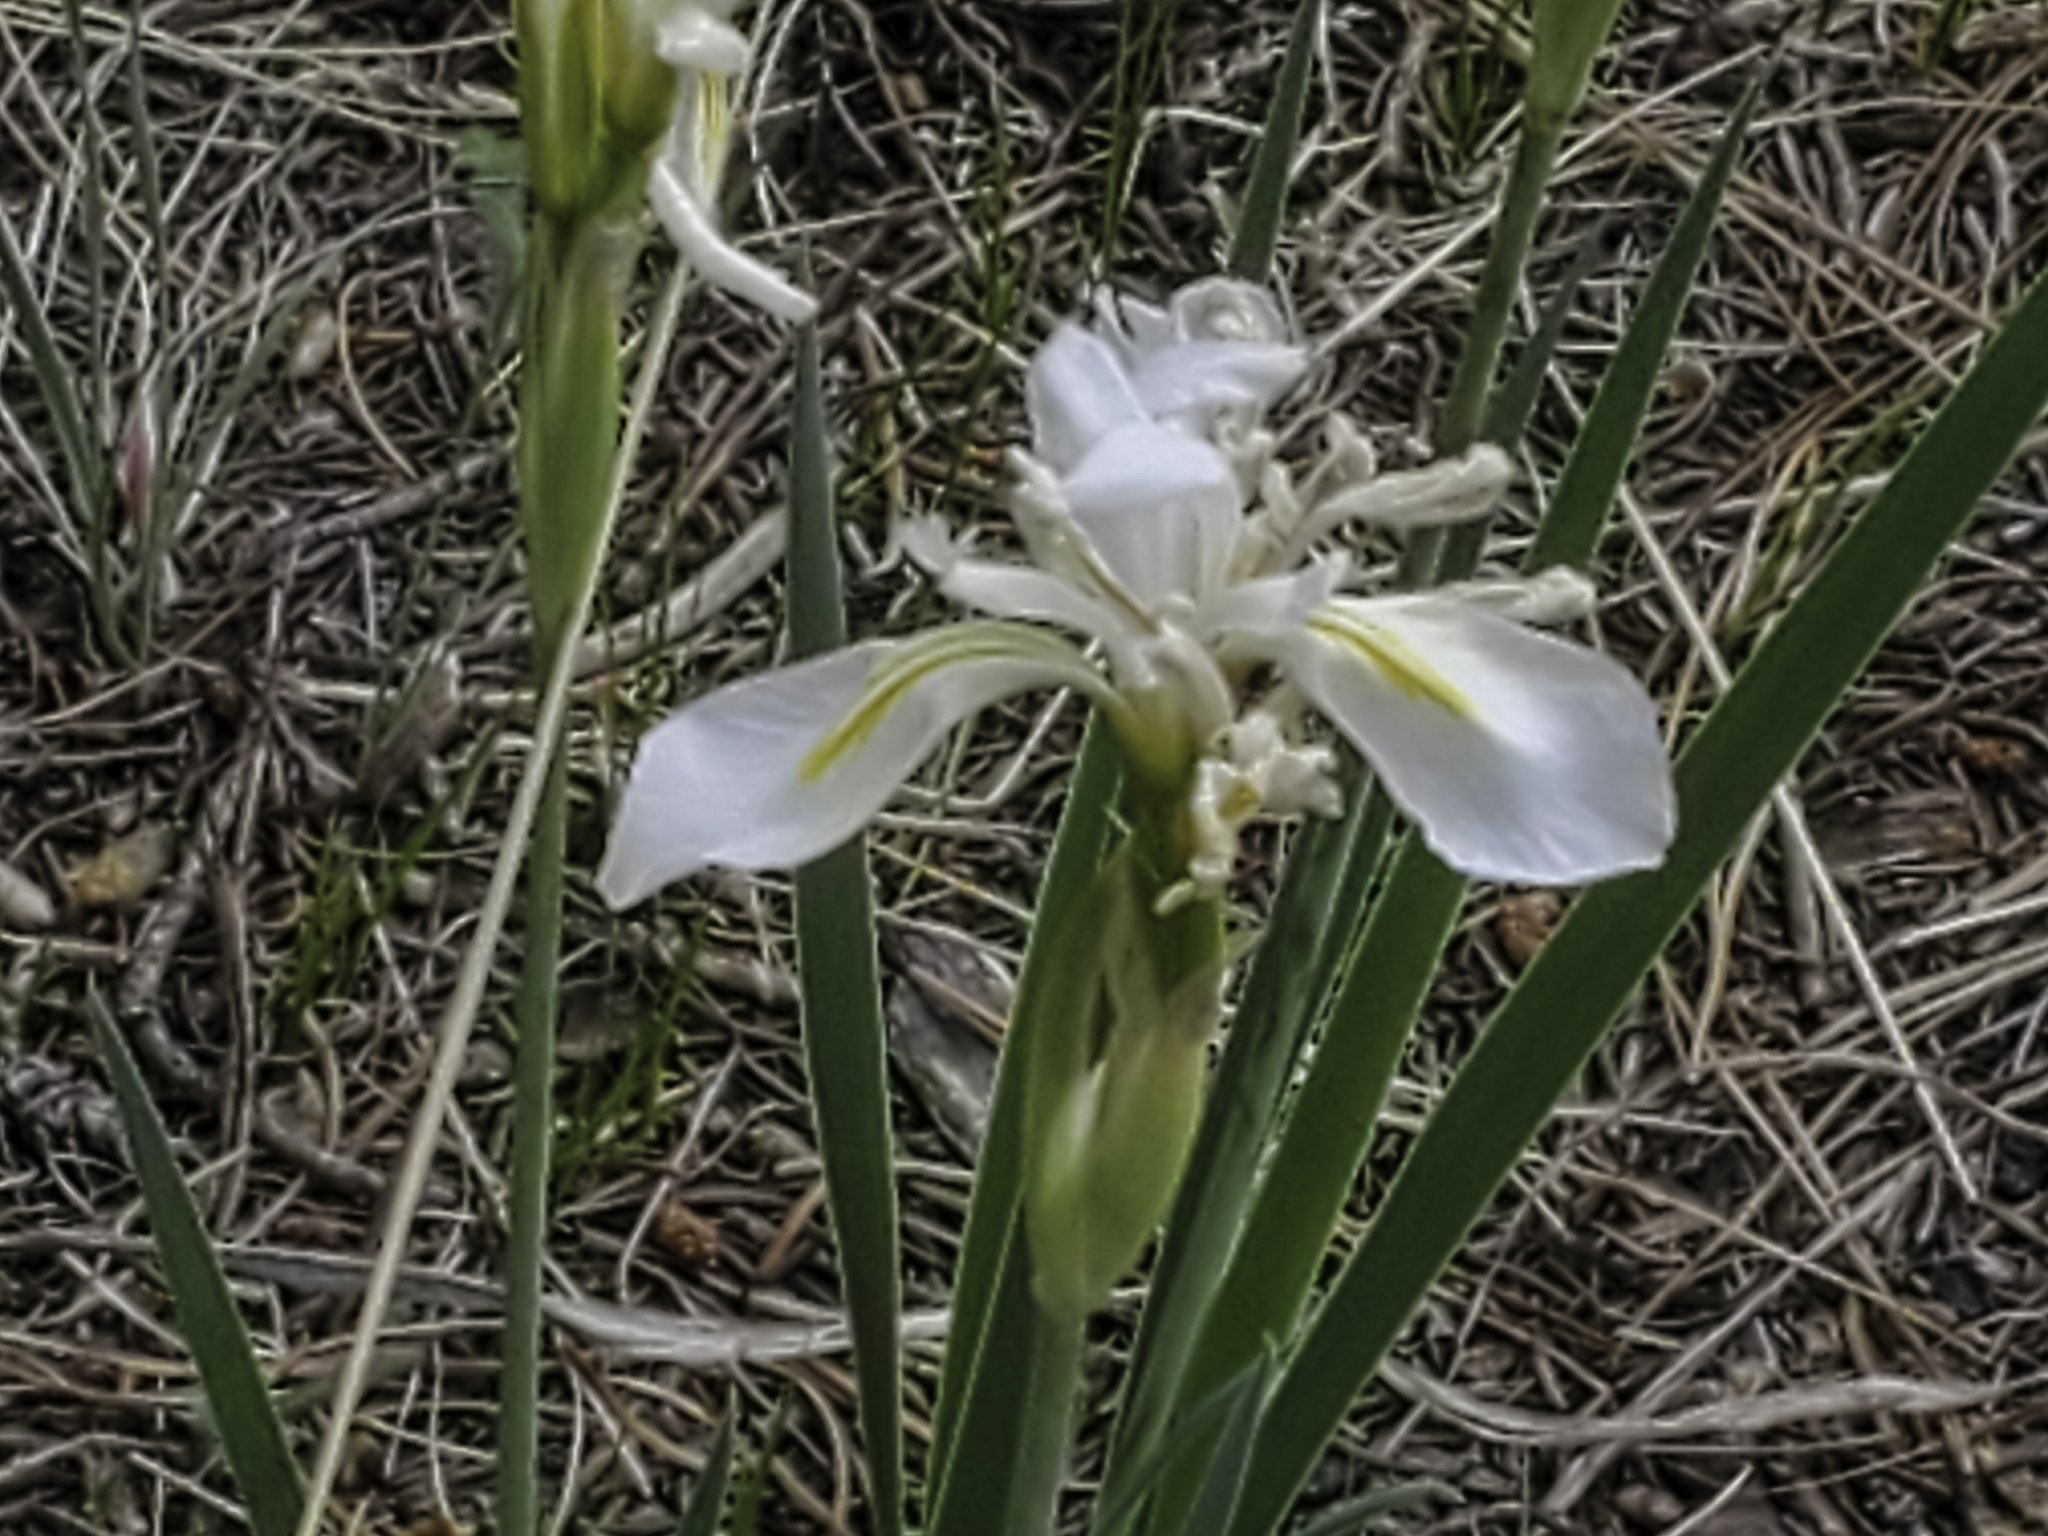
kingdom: Plantae
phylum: Tracheophyta
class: Liliopsida
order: Asparagales
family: Iridaceae
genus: Iris
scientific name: Iris missouriensis
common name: Rocky mountain iris
